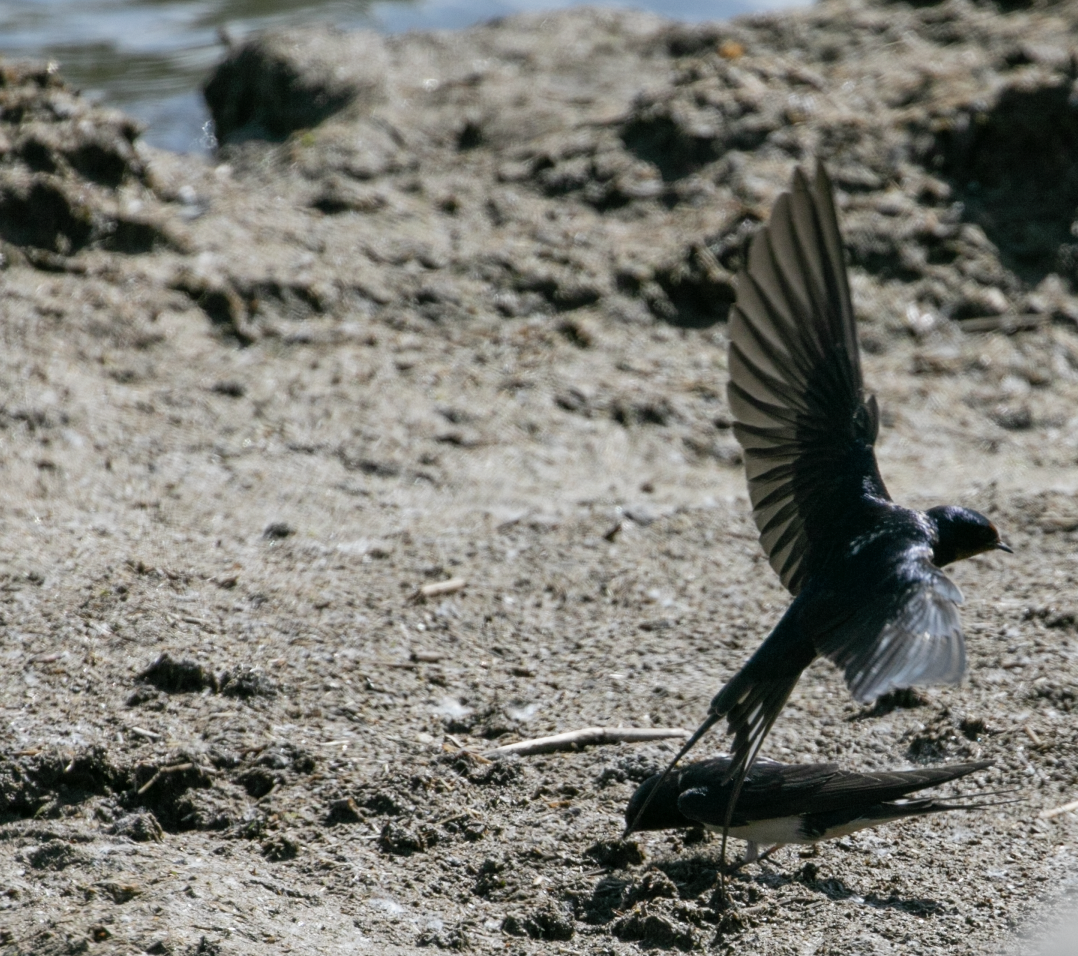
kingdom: Animalia
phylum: Chordata
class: Aves
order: Passeriformes
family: Hirundinidae
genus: Hirundo
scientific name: Hirundo rustica
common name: Barn swallow
